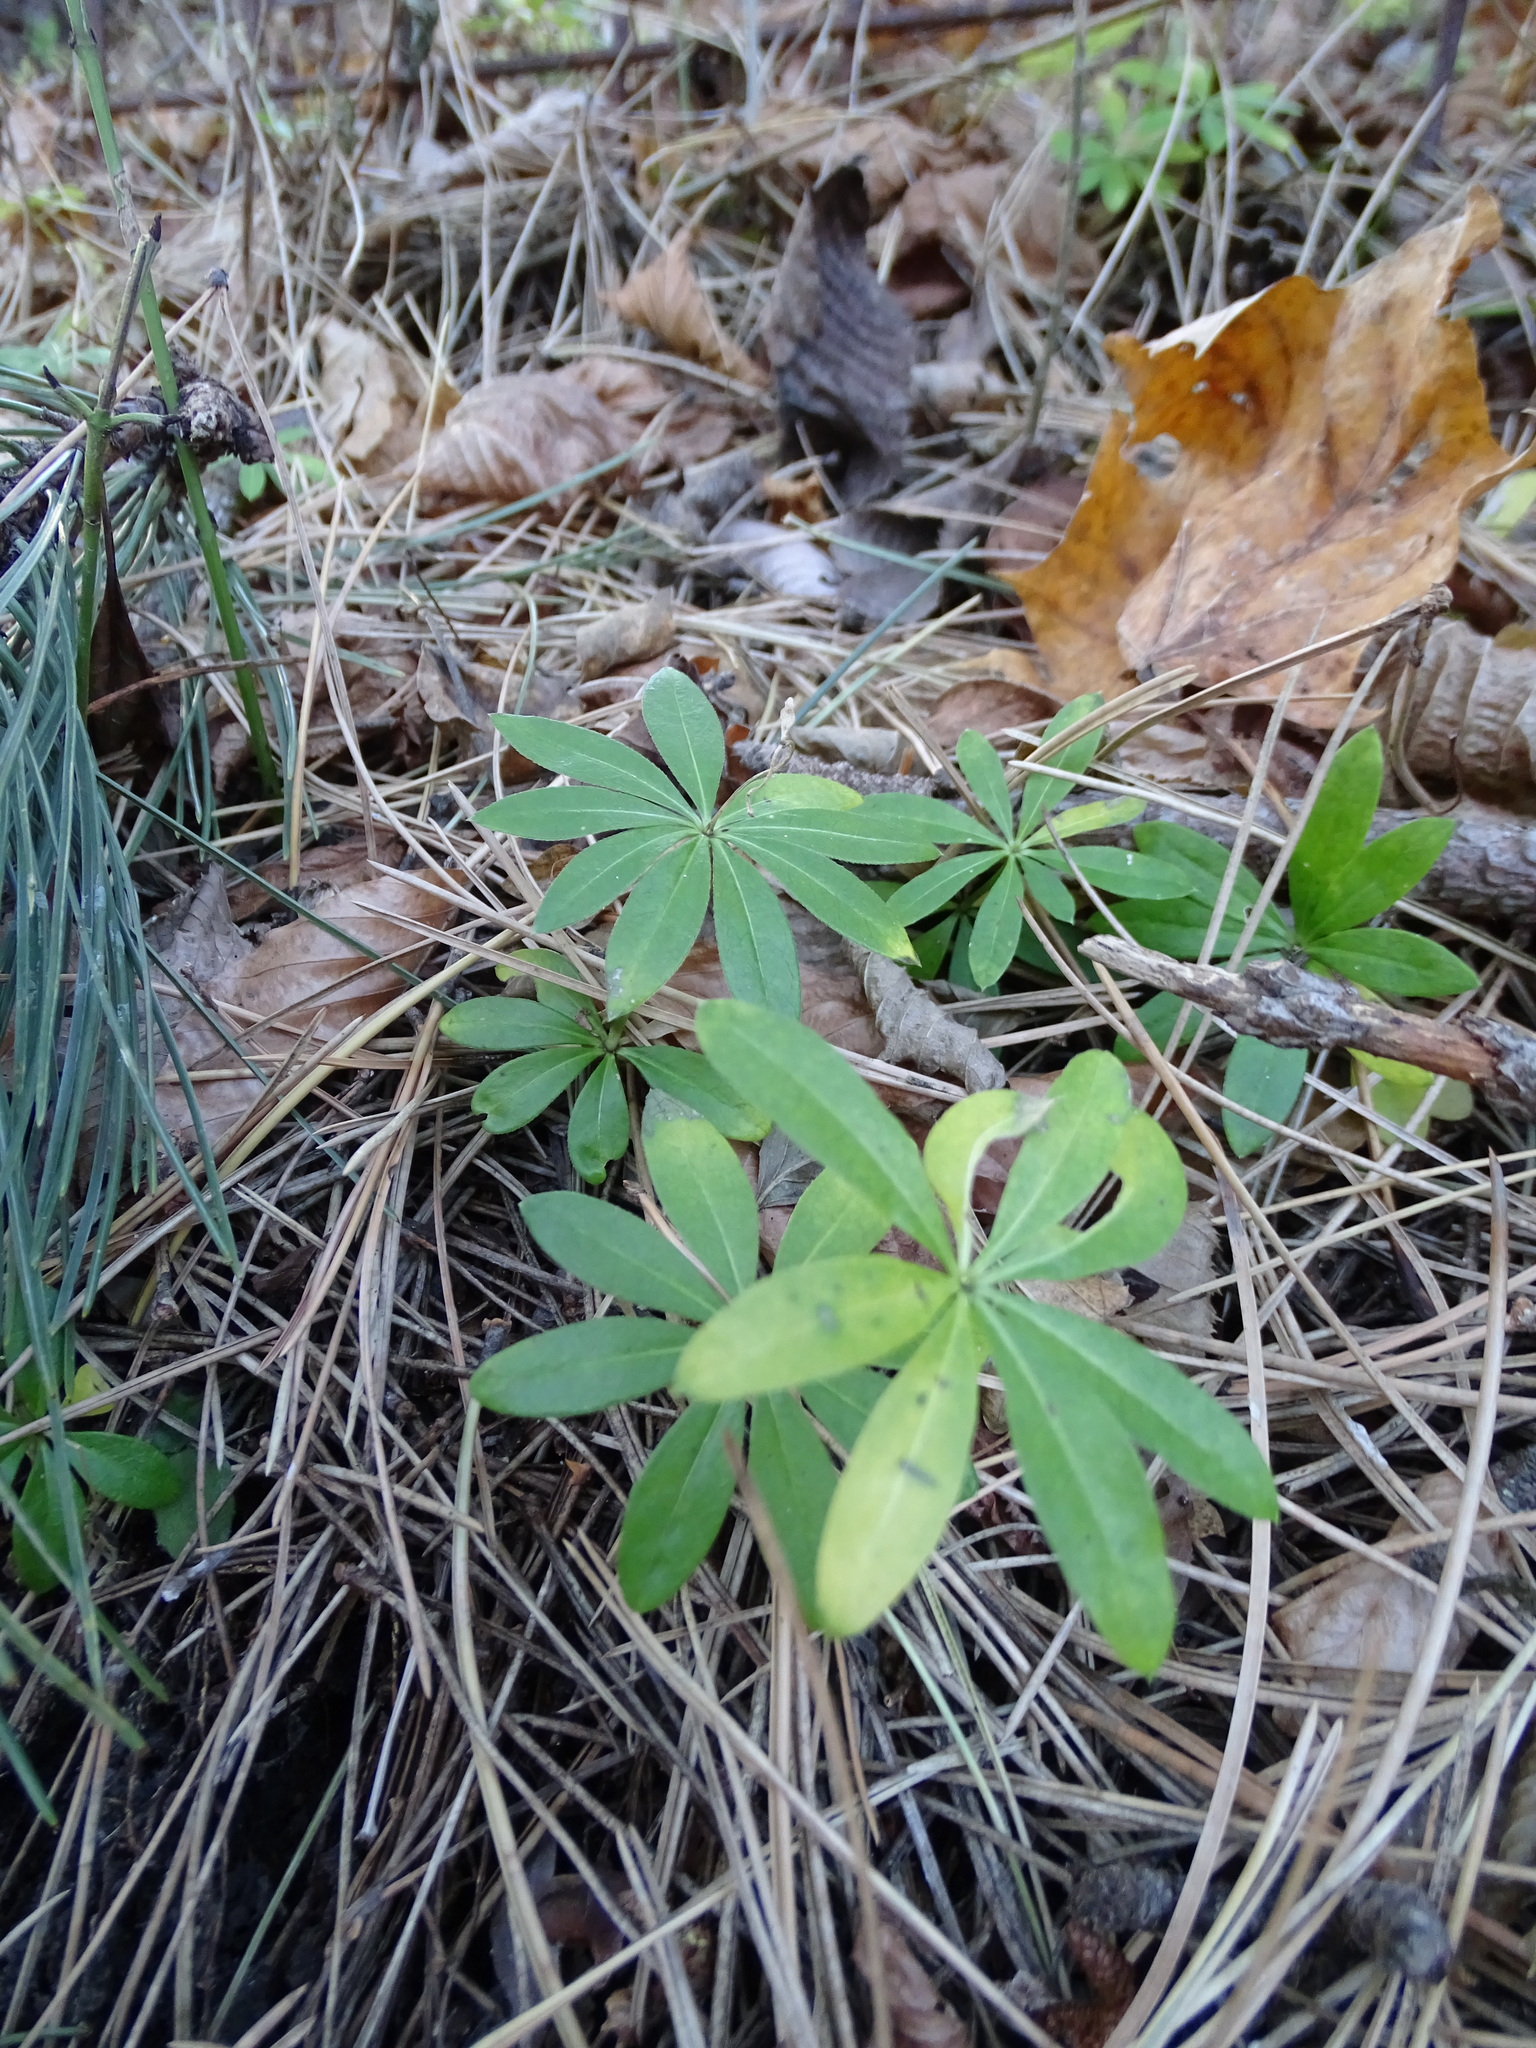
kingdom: Plantae
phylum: Tracheophyta
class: Magnoliopsida
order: Gentianales
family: Rubiaceae
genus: Galium
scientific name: Galium odoratum
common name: Sweet woodruff
